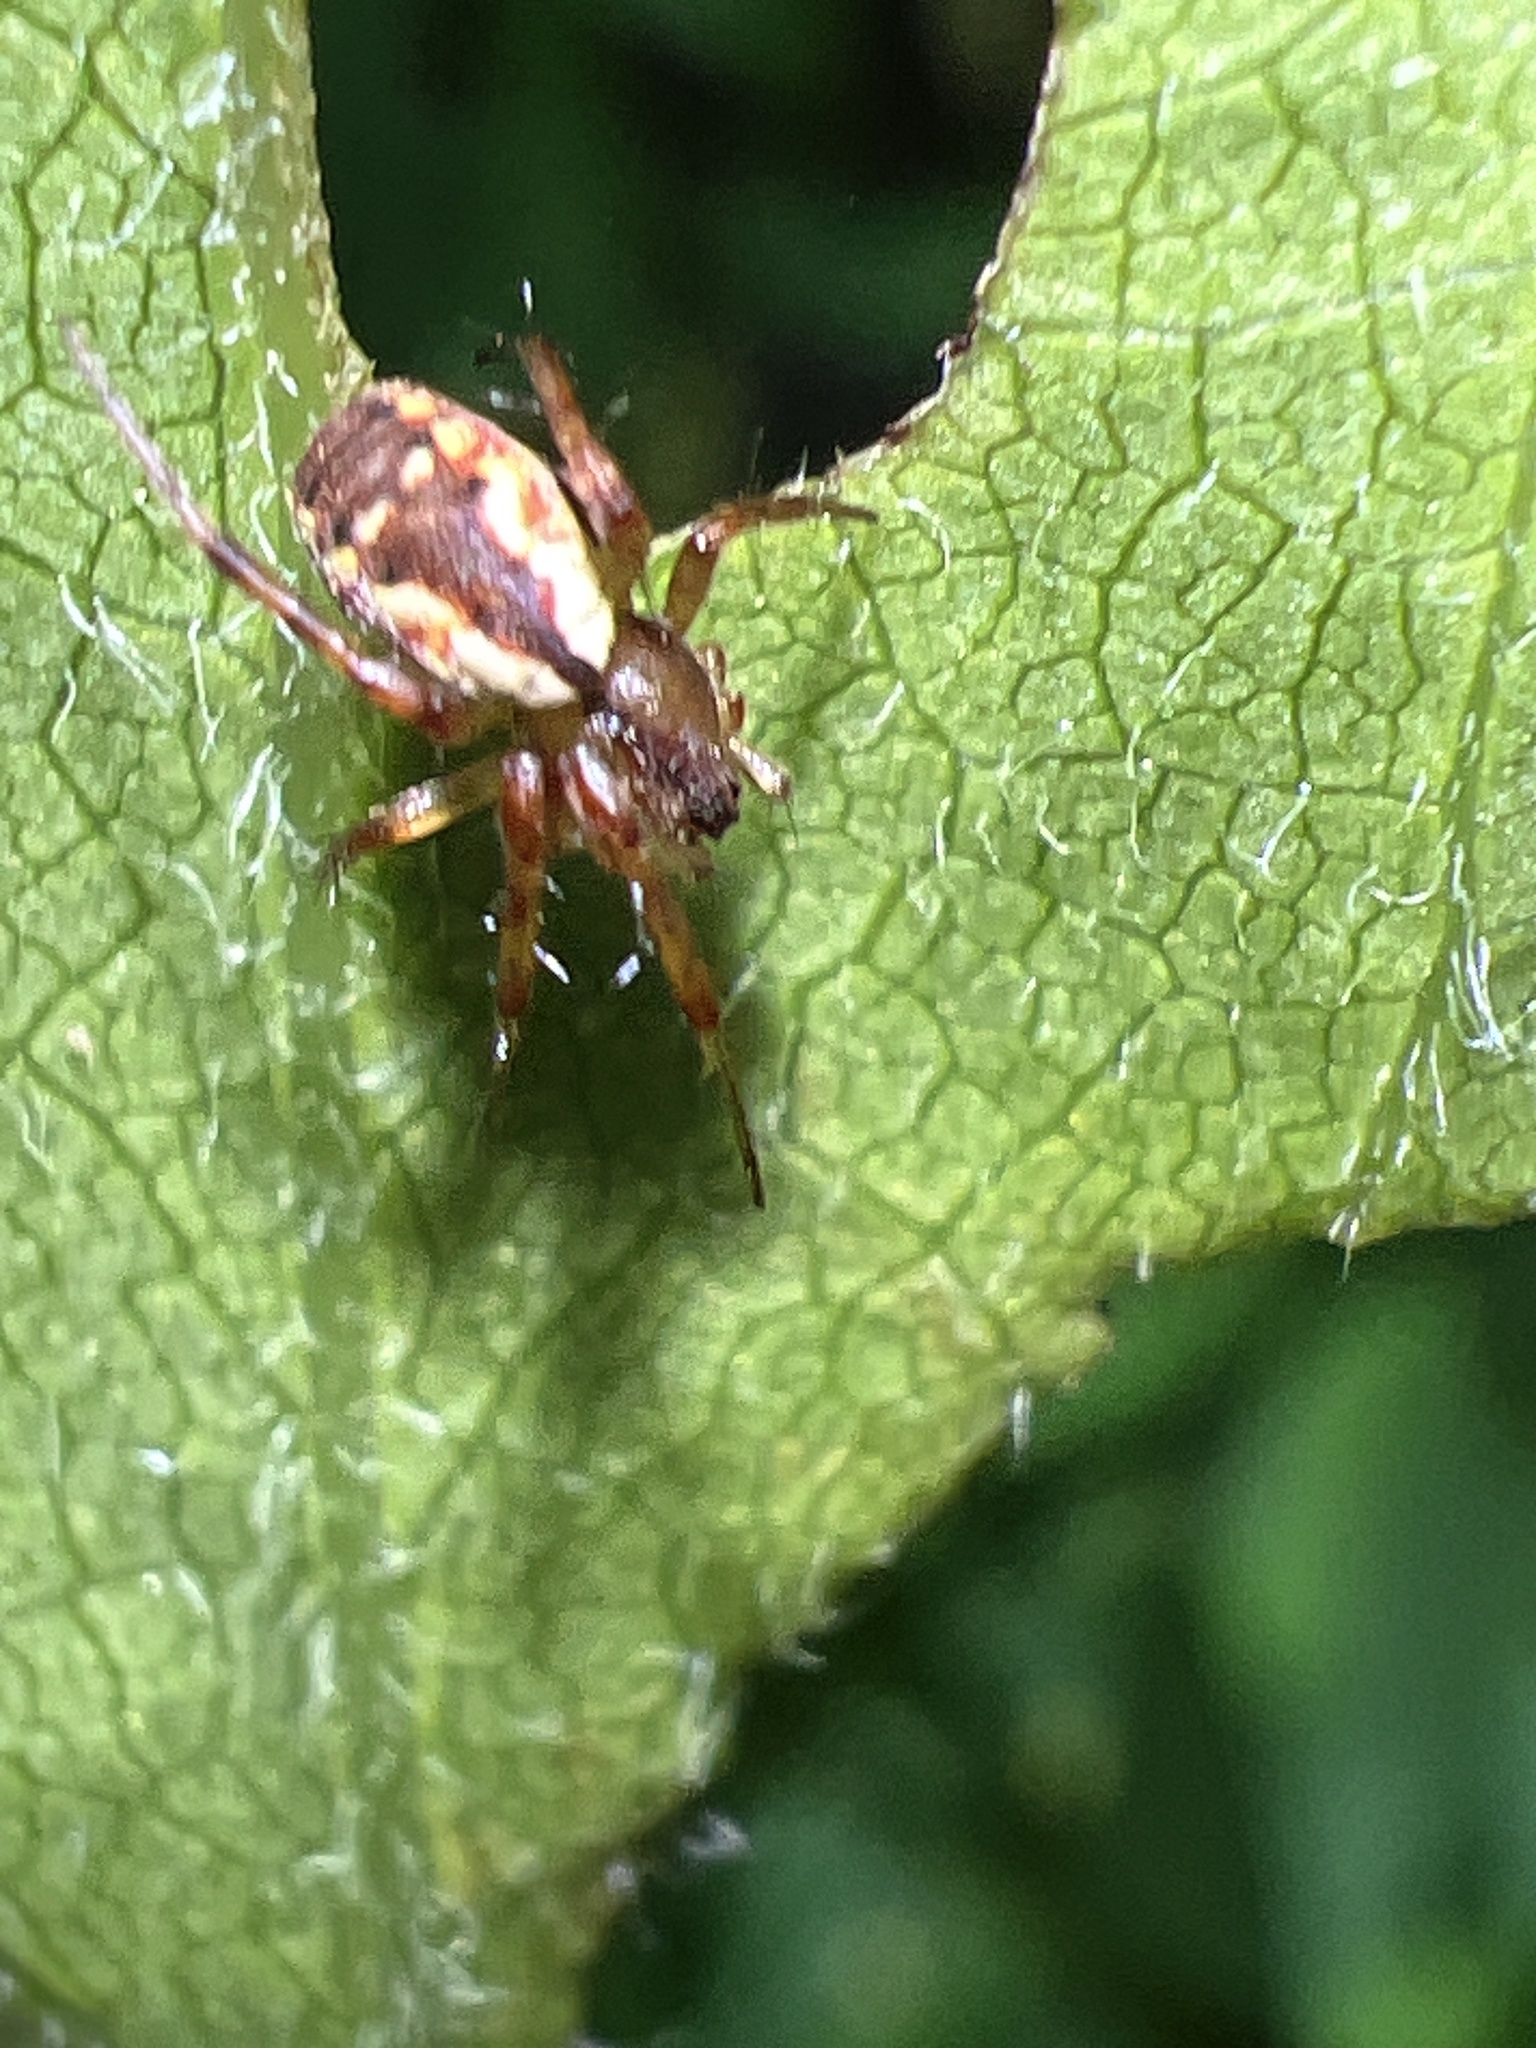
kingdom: Animalia
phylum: Arthropoda
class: Arachnida
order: Araneae
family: Araneidae
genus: Mangora
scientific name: Mangora placida
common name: Tuft-legged orbweaver
